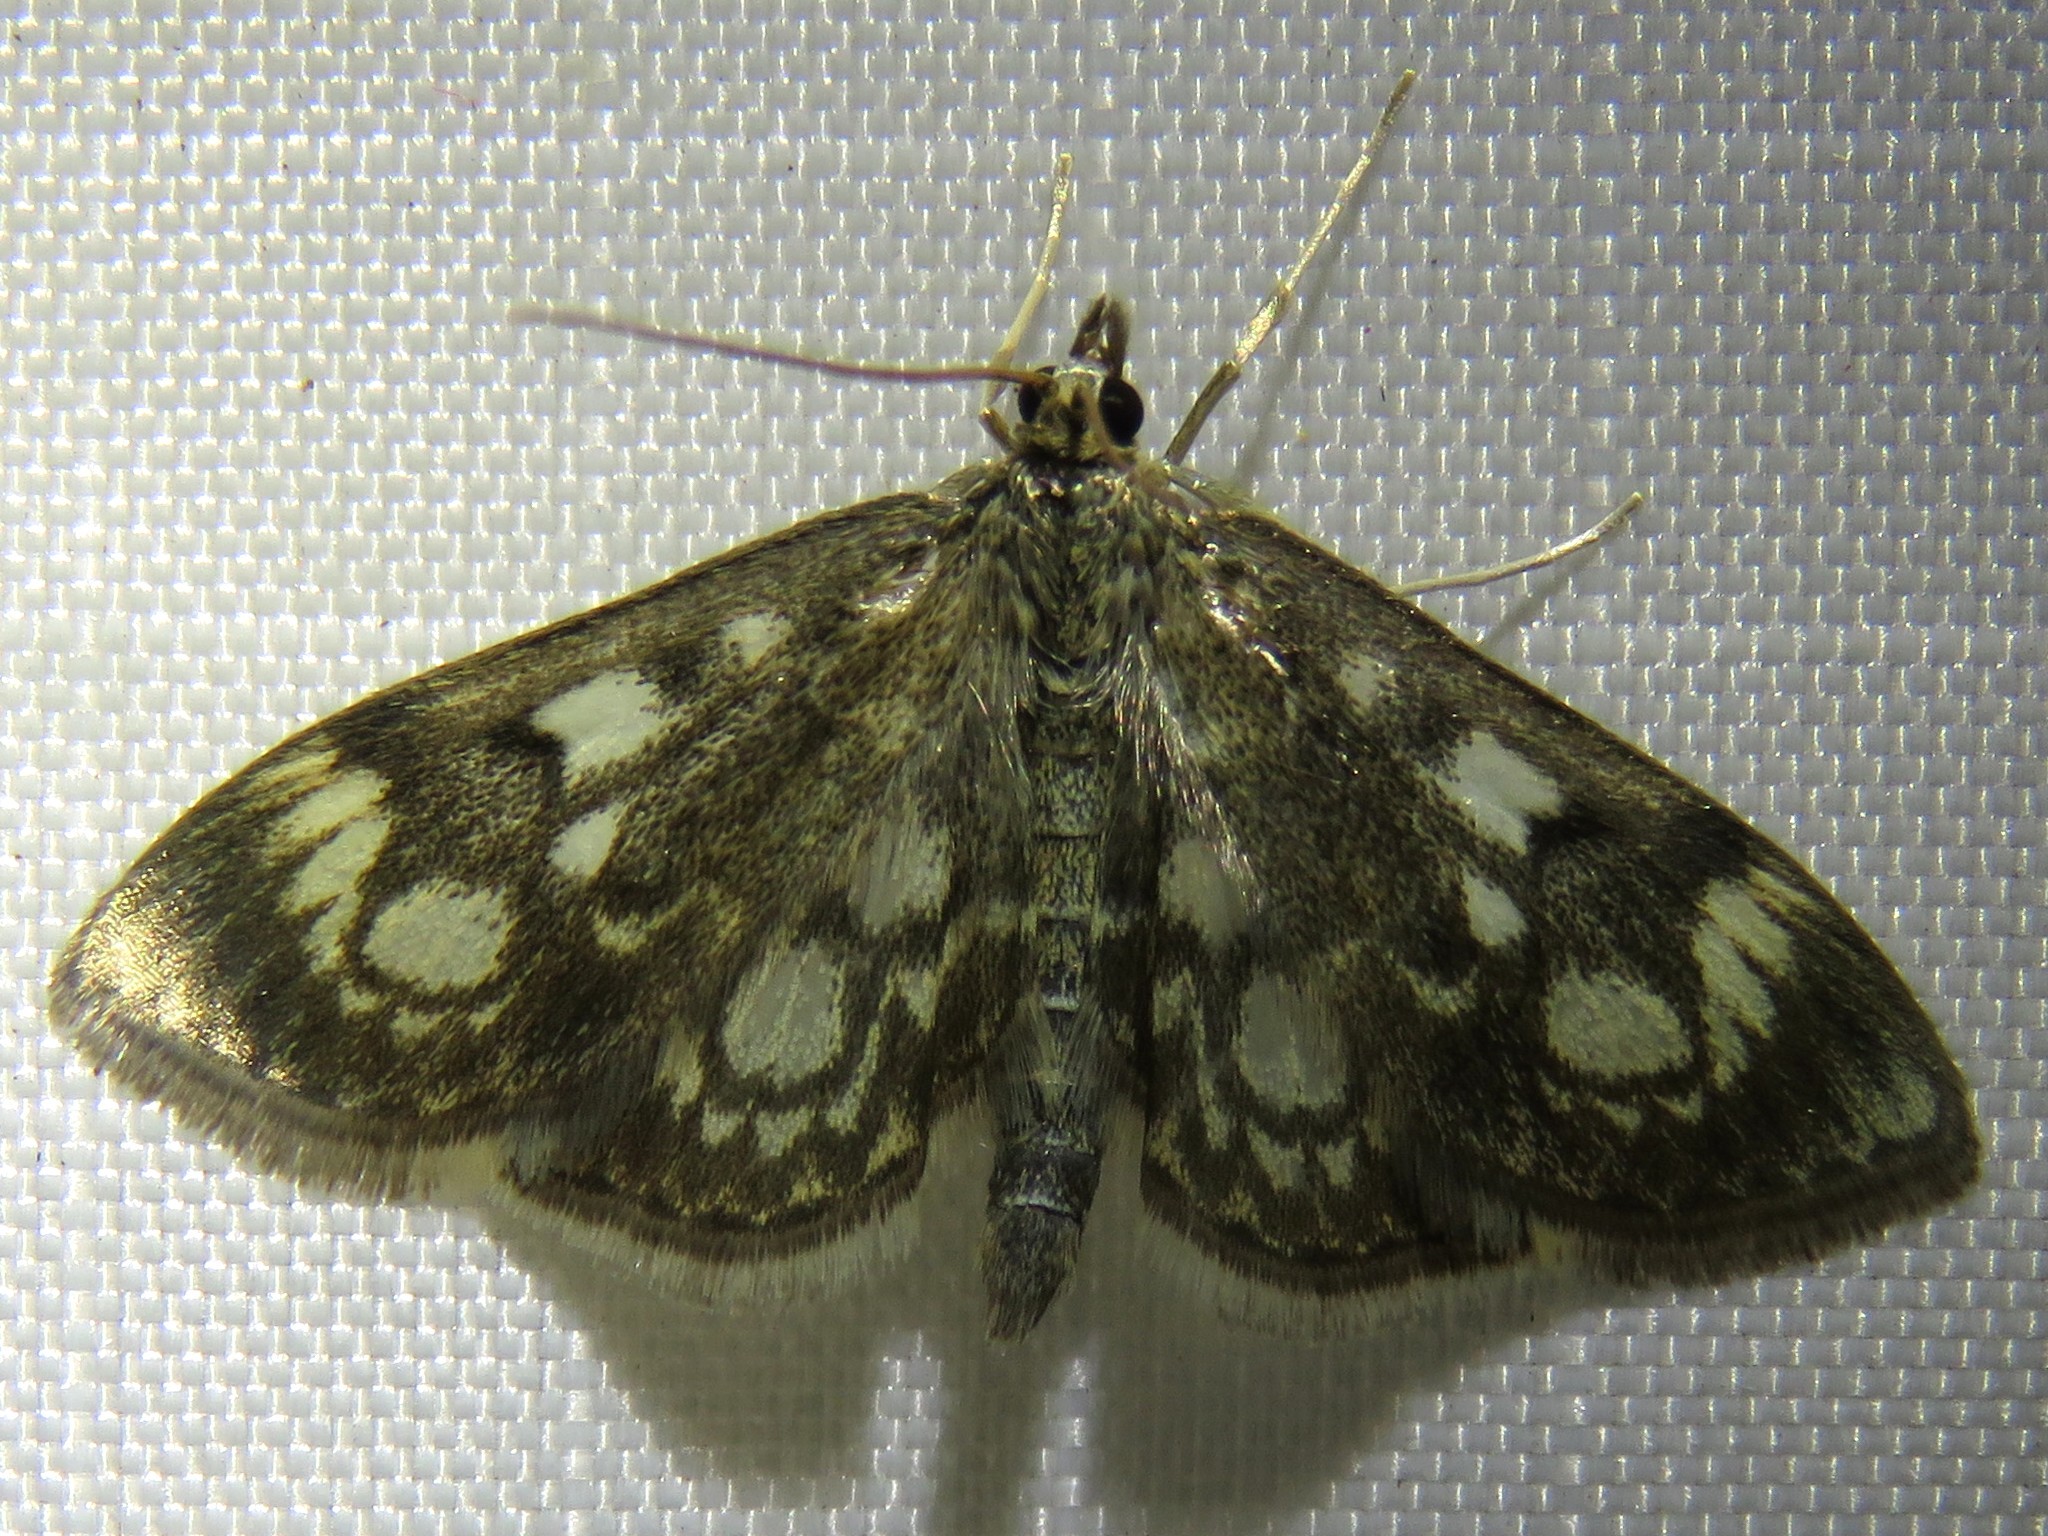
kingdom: Animalia
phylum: Arthropoda
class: Insecta
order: Lepidoptera
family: Crambidae
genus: Anania
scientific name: Anania coronata
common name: Elder pearl
